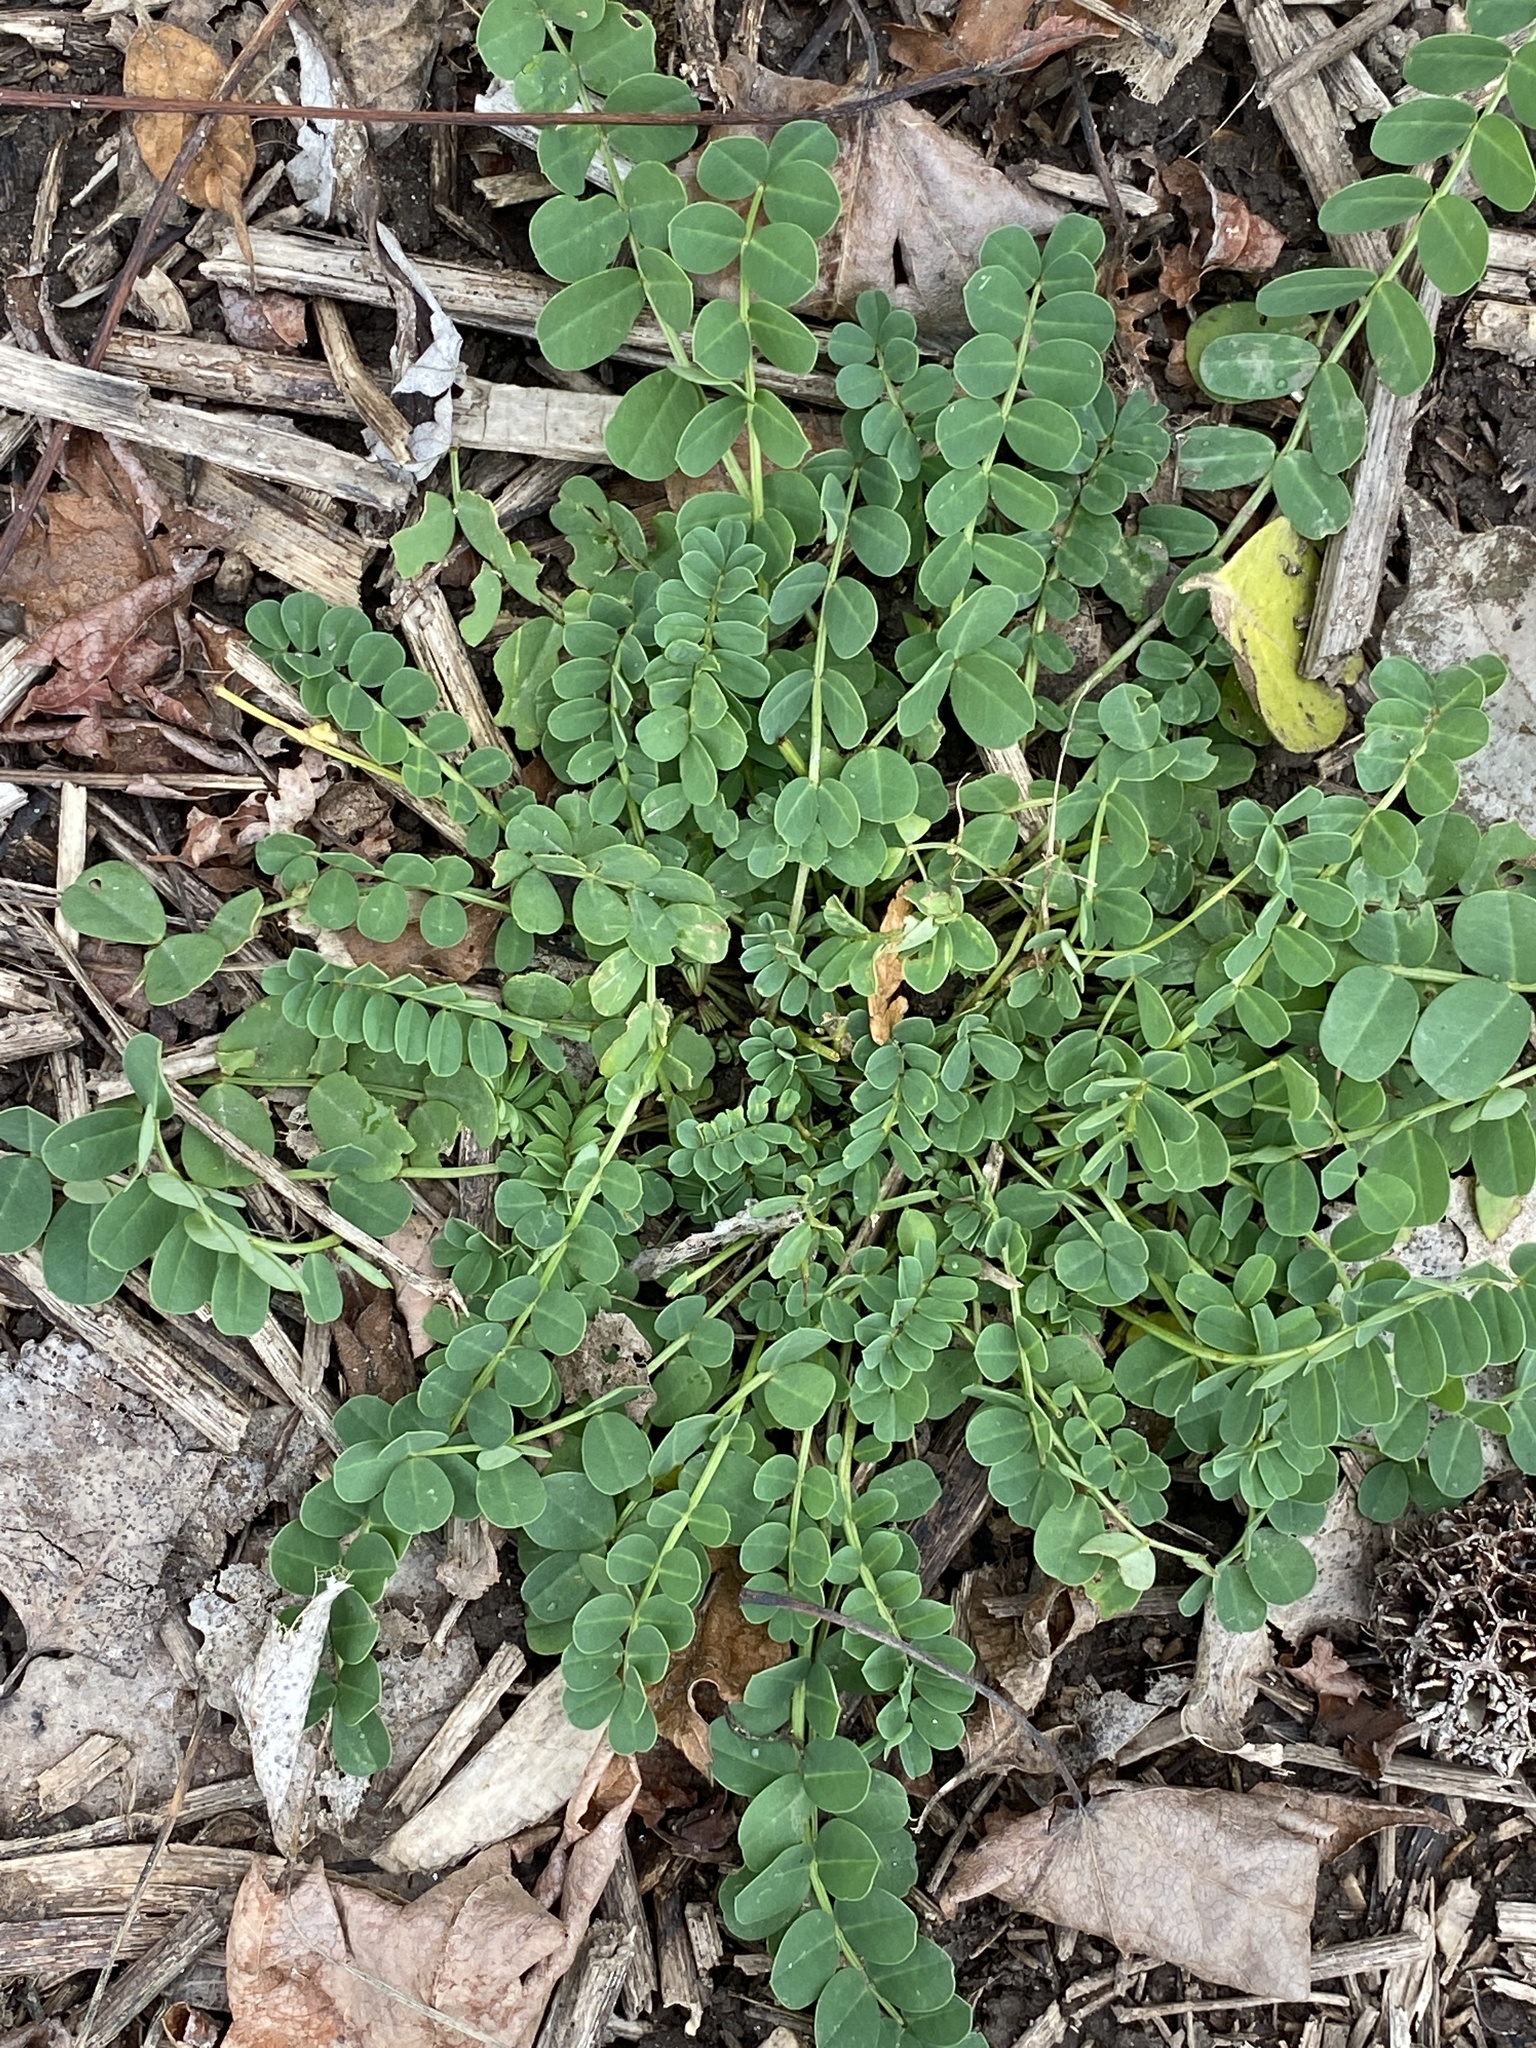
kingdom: Plantae
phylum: Tracheophyta
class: Magnoliopsida
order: Fabales
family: Fabaceae
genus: Coronilla
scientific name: Coronilla varia
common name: Crownvetch
